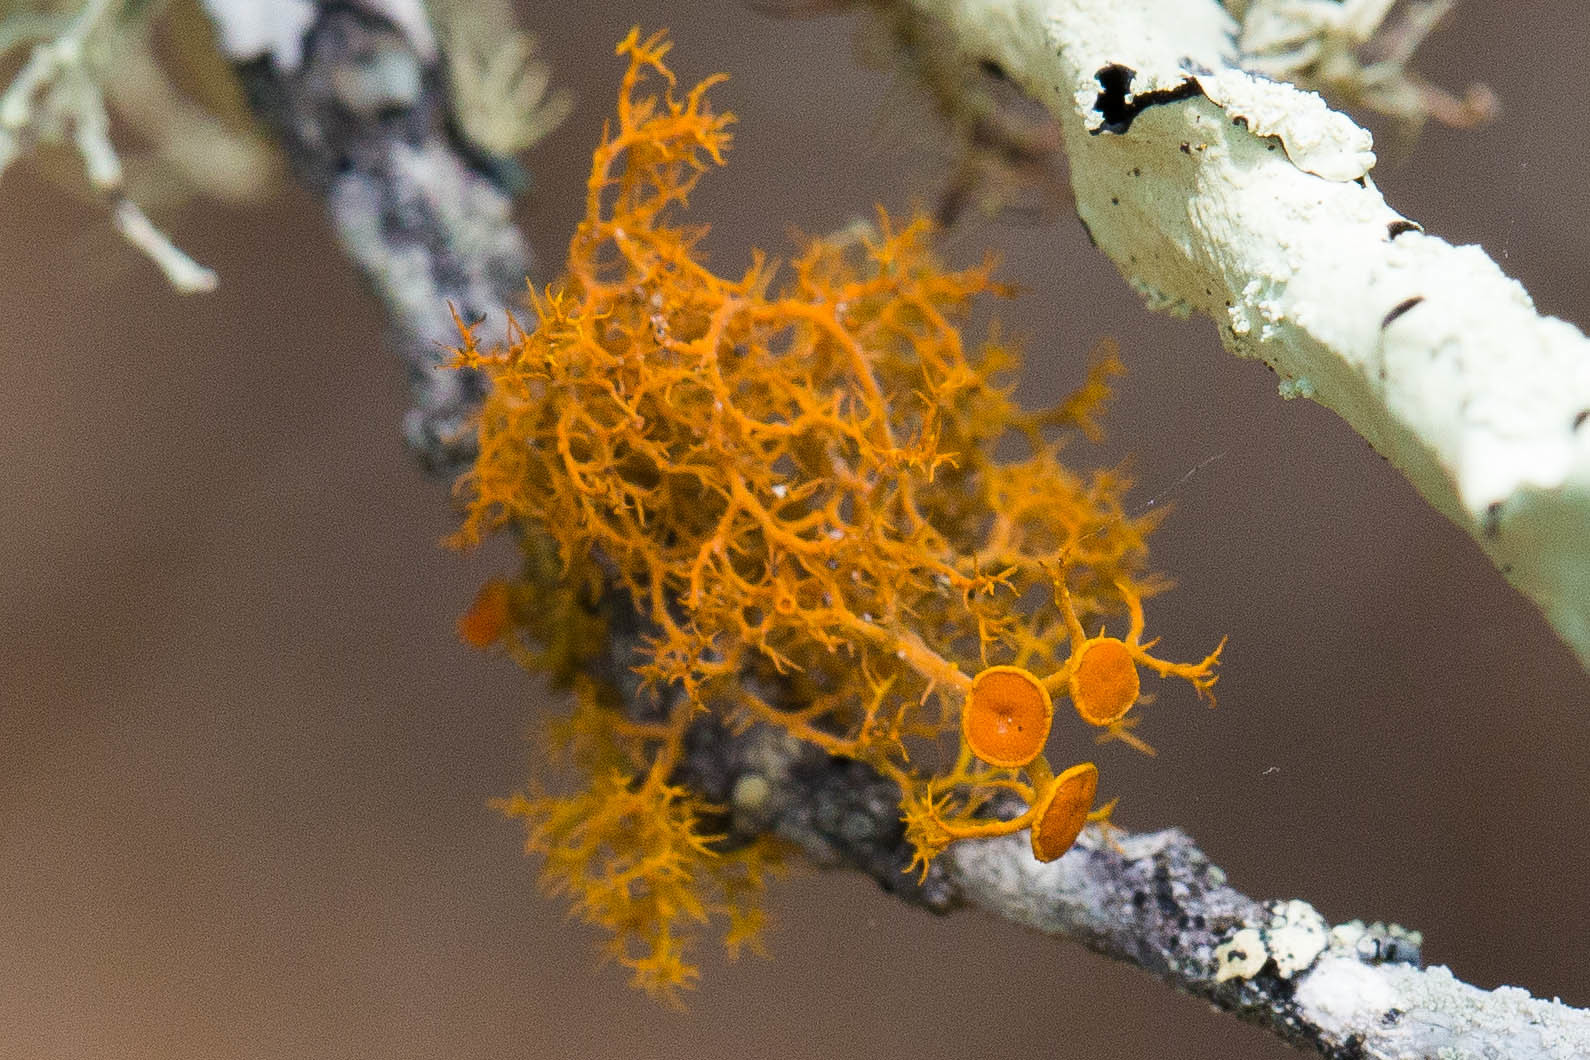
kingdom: Fungi
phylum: Ascomycota
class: Lecanoromycetes
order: Teloschistales
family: Teloschistaceae
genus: Teloschistes
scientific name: Teloschistes flavicans
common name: Golden hair-lichen
